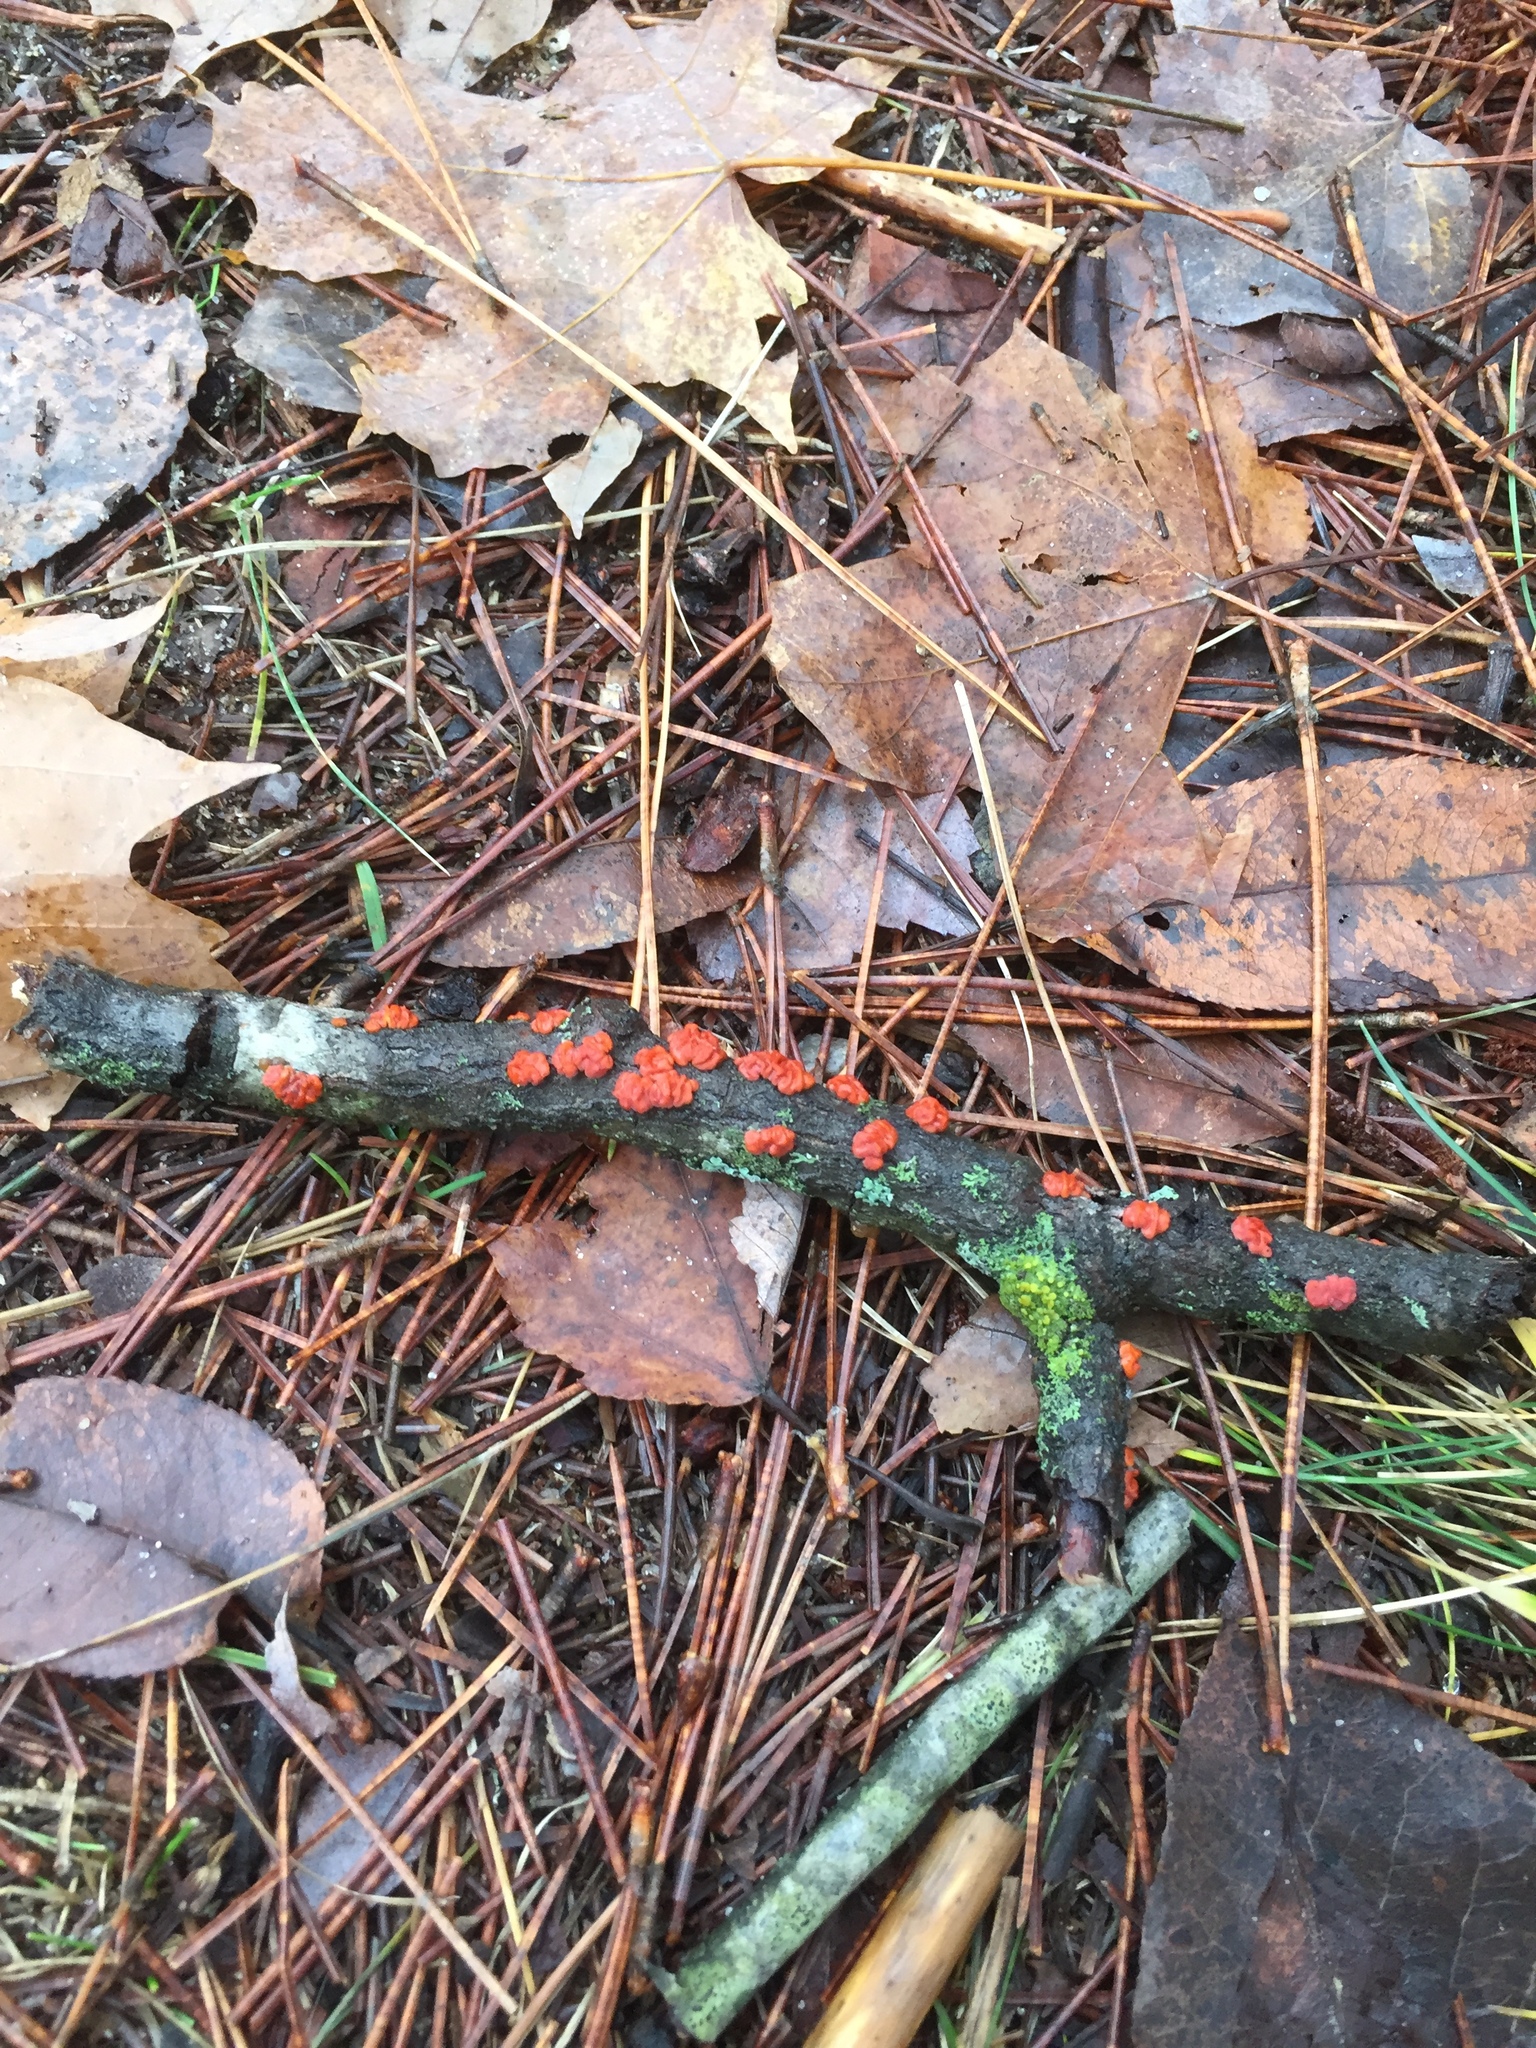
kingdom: Fungi
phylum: Basidiomycota
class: Agaricomycetes
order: Russulales
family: Peniophoraceae
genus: Peniophora
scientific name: Peniophora rufa
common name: Red tree brain fungus
